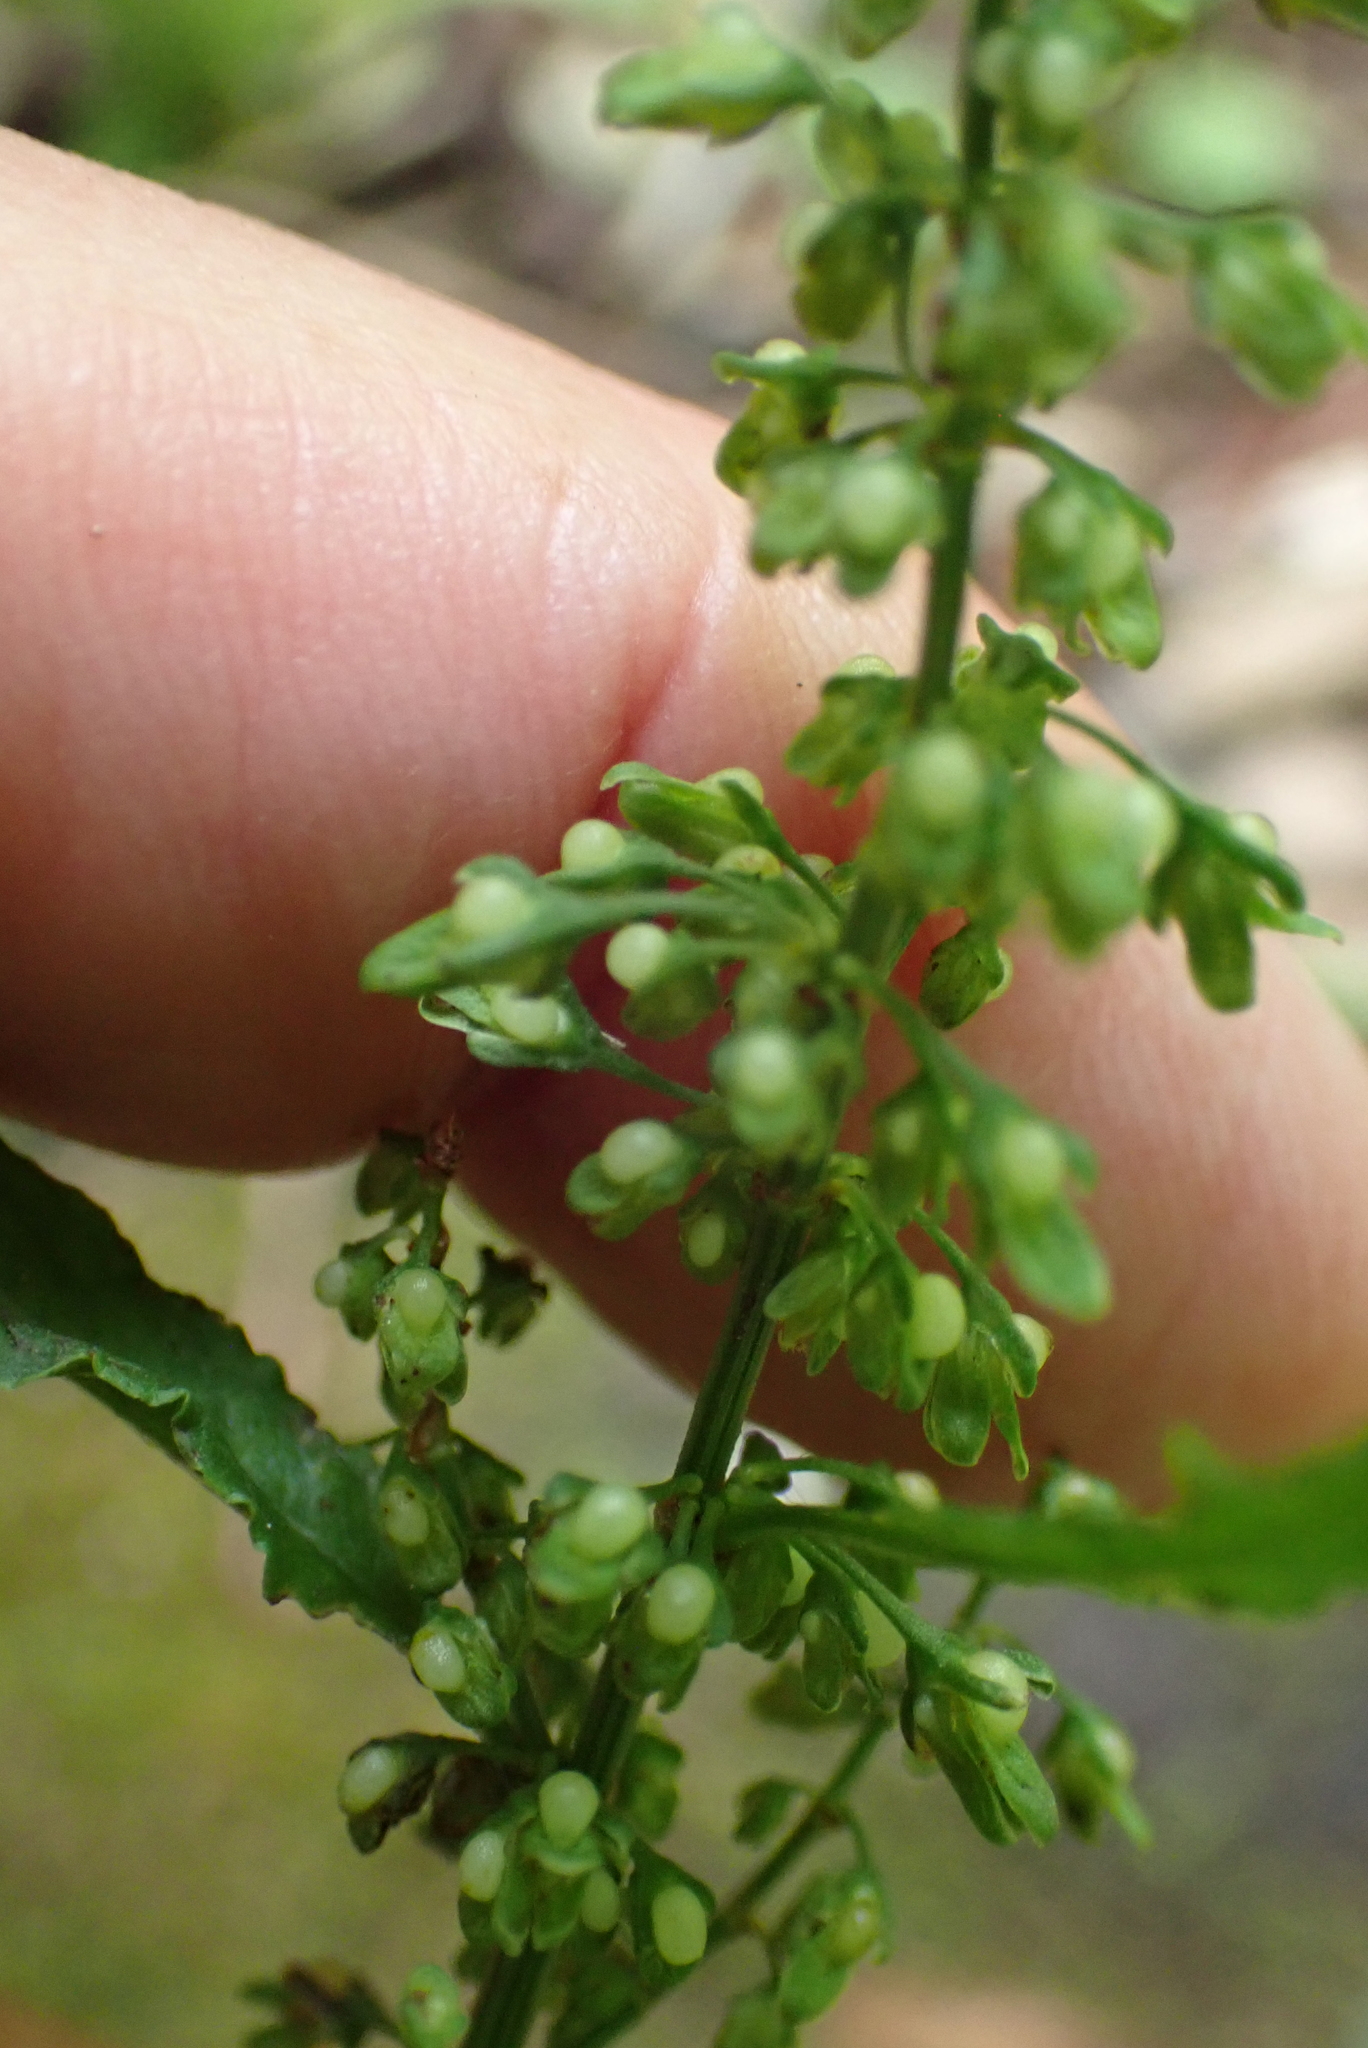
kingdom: Plantae
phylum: Tracheophyta
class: Magnoliopsida
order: Caryophyllales
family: Polygonaceae
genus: Rumex
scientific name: Rumex conglomeratus
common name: Clustered dock
